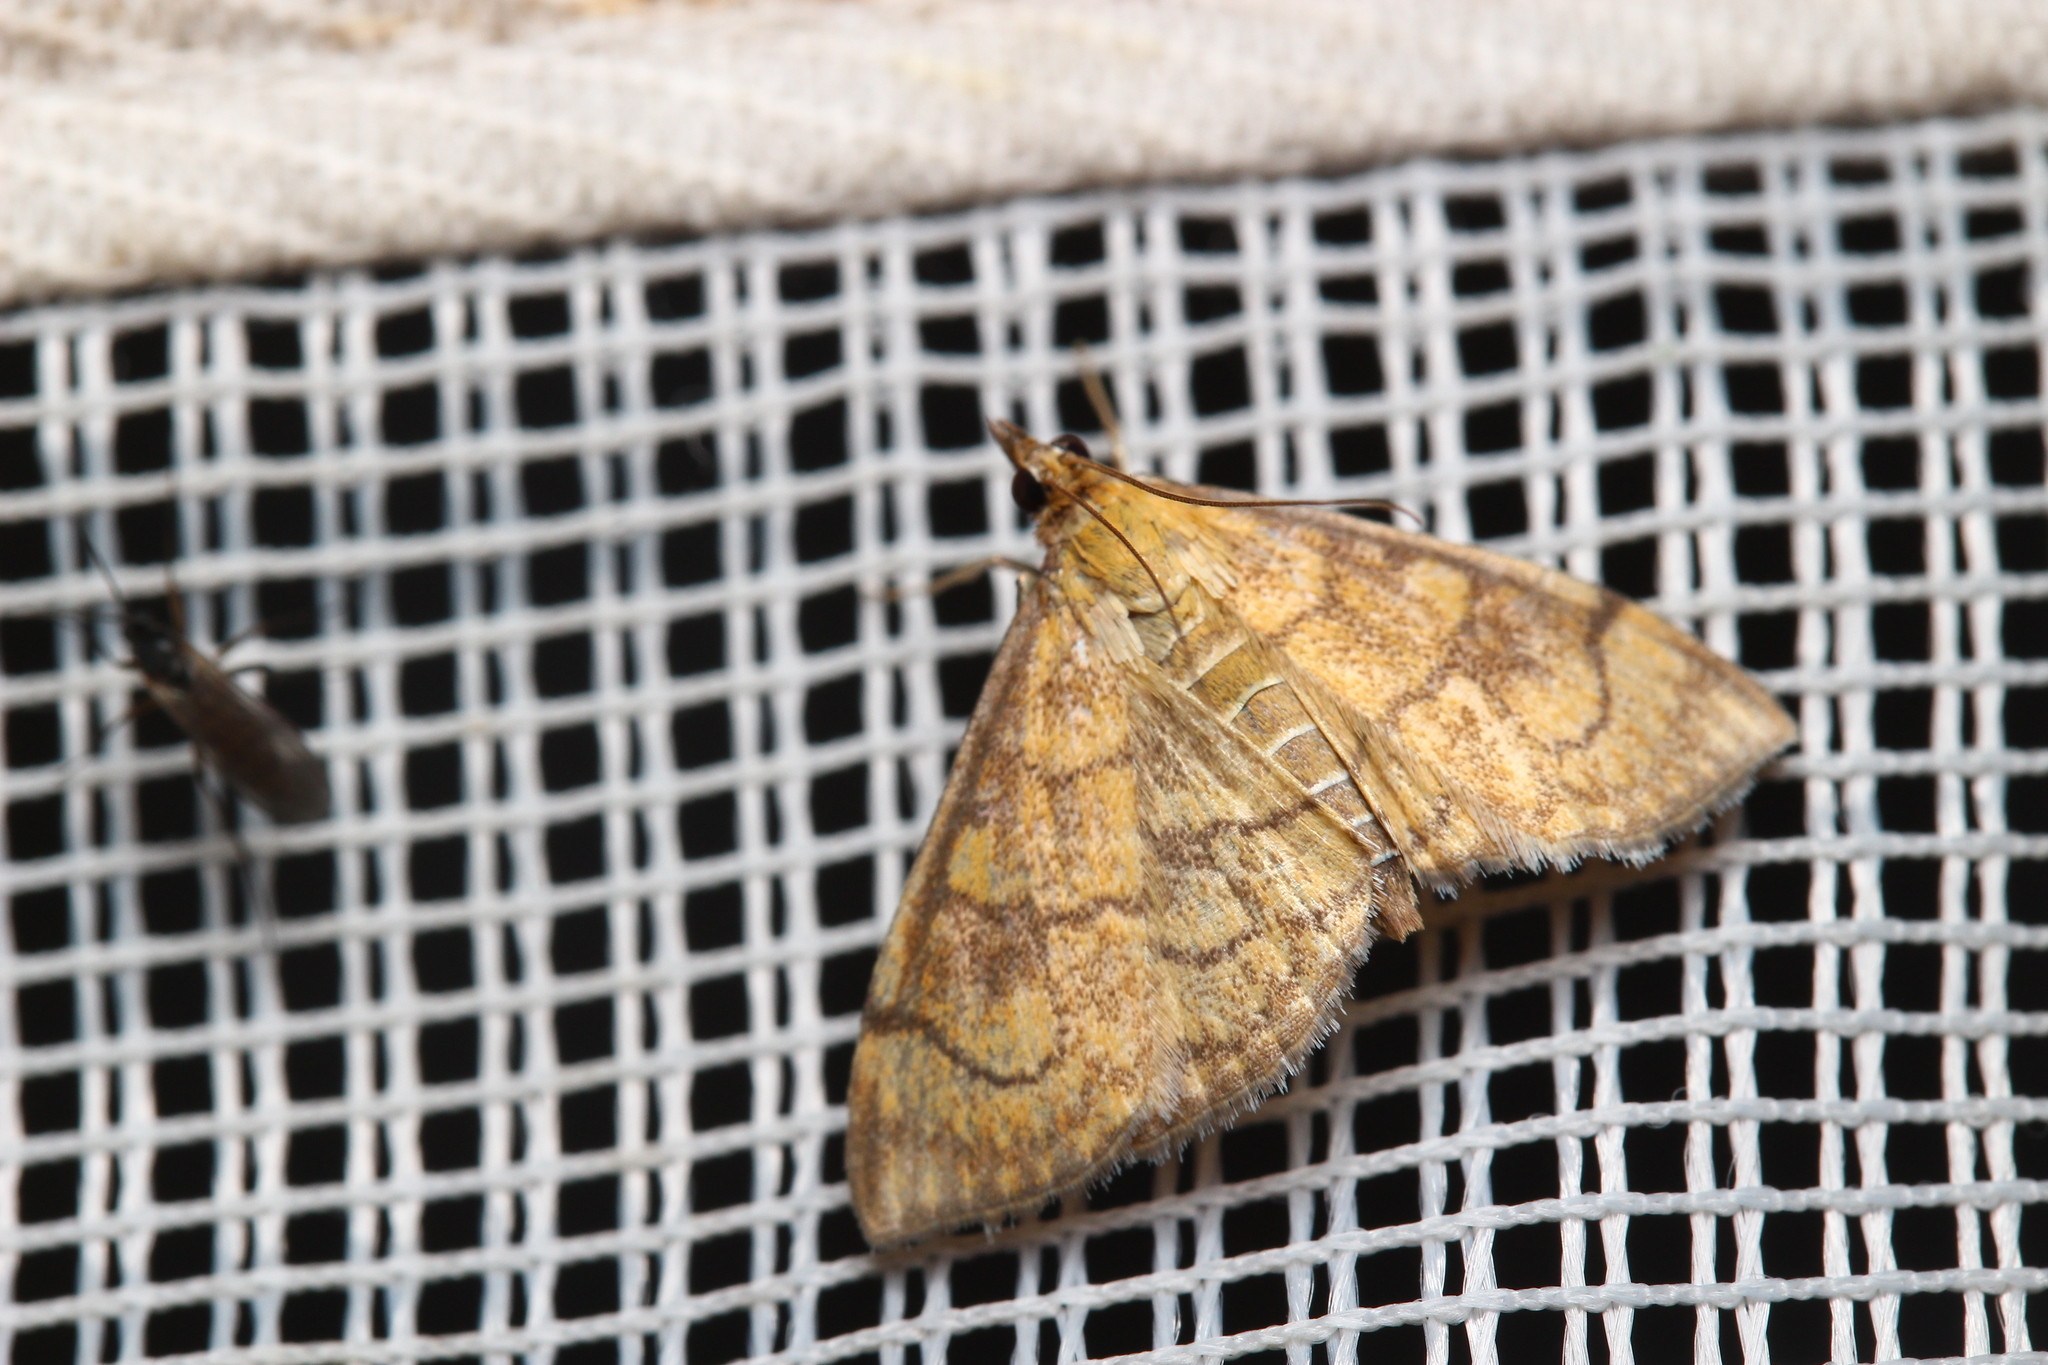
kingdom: Animalia
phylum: Arthropoda
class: Insecta
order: Lepidoptera
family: Crambidae
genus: Anania
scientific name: Anania verbascalis
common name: Golden pearl
